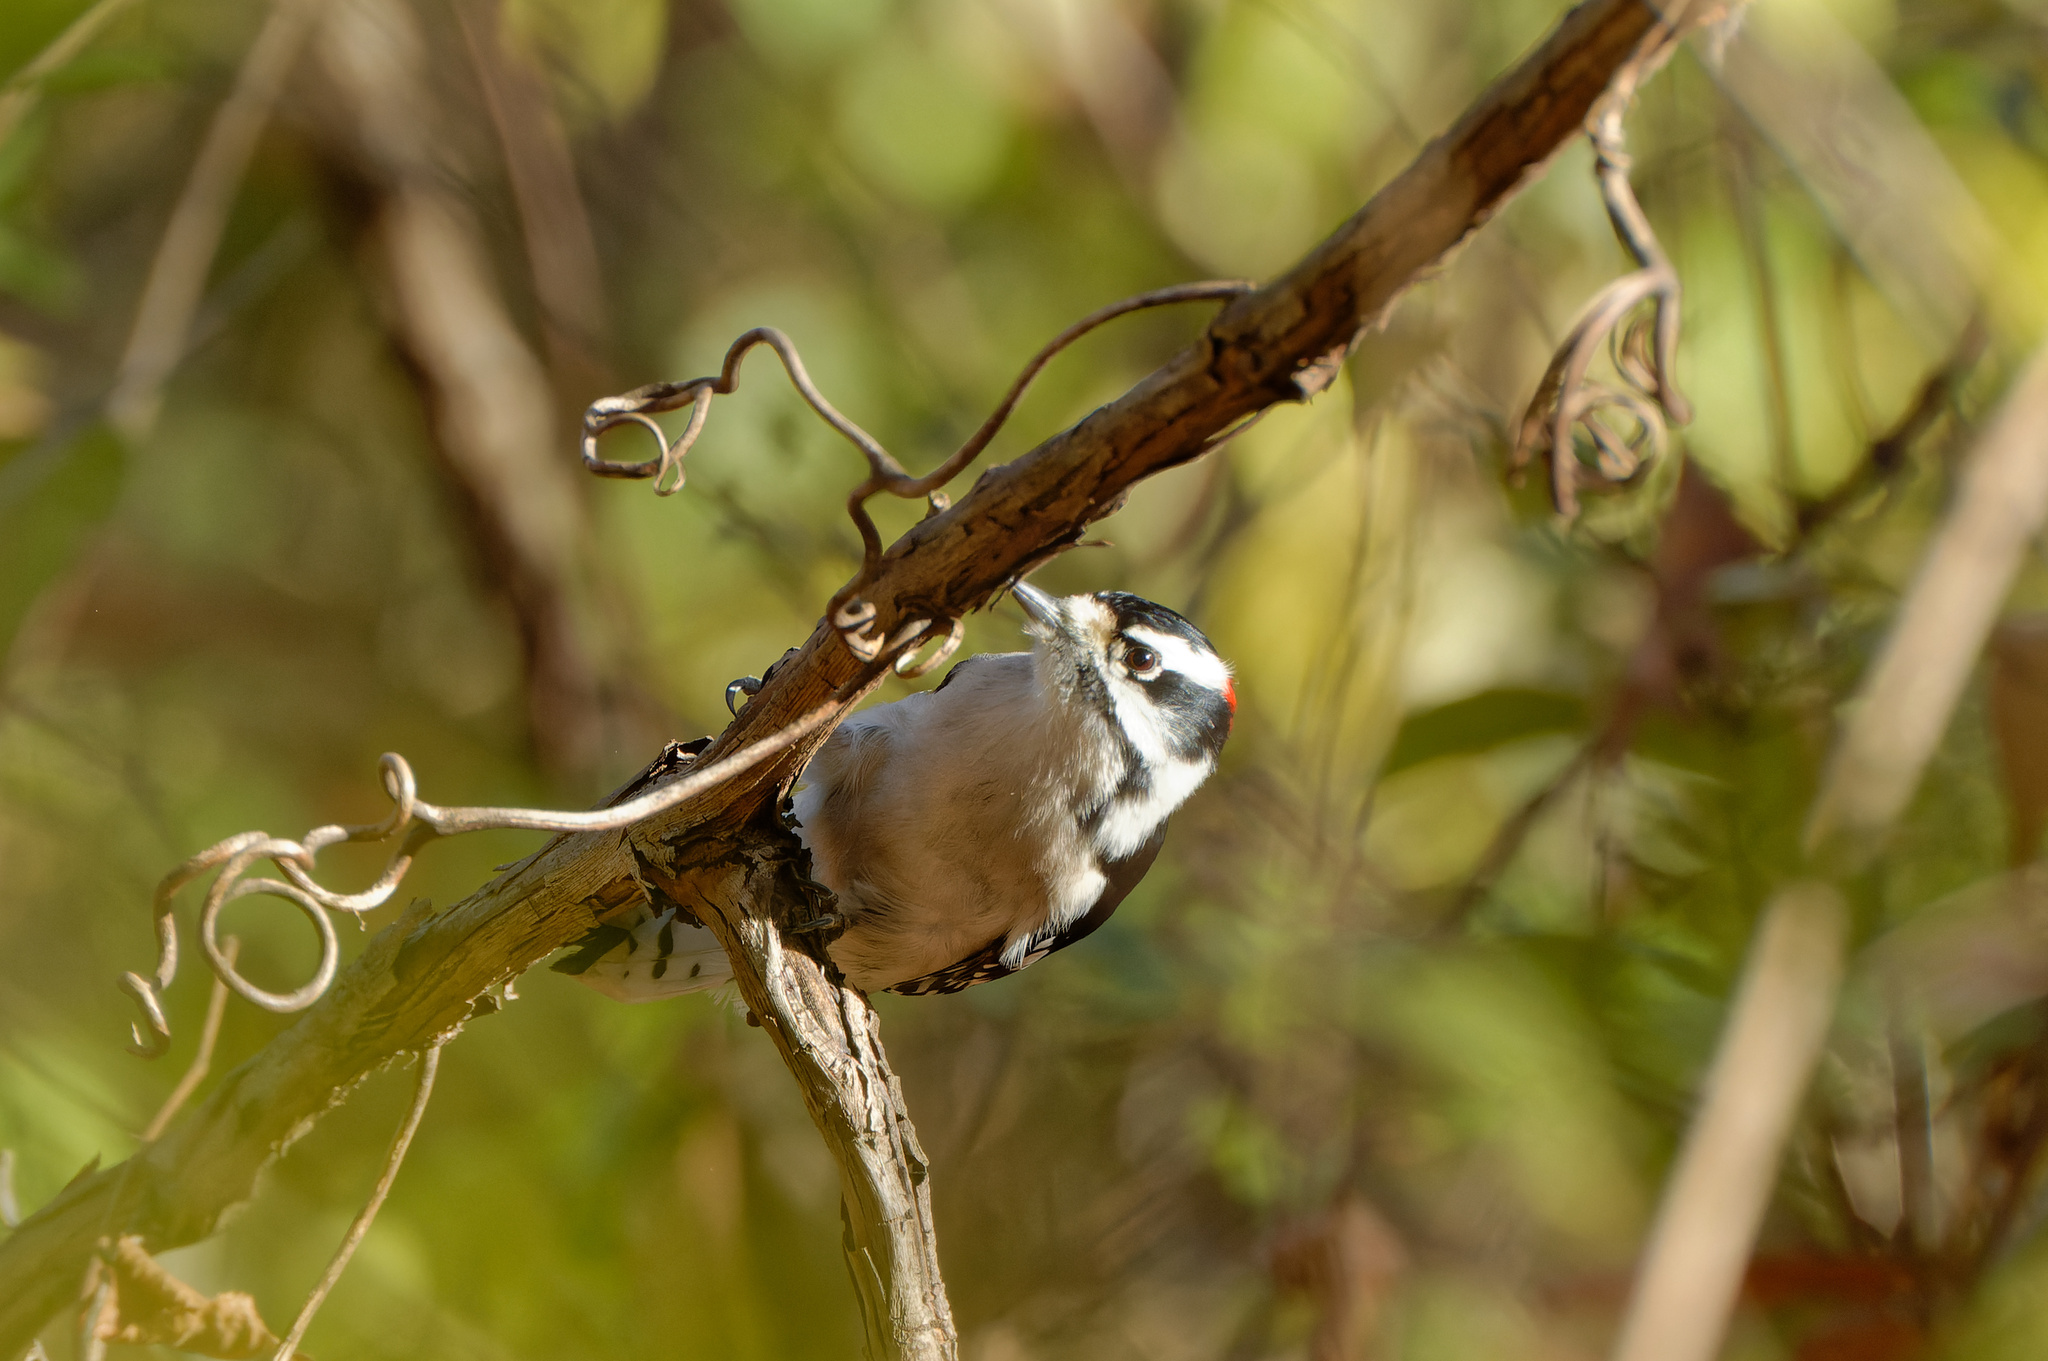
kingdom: Animalia
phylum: Chordata
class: Aves
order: Piciformes
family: Picidae
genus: Dryobates
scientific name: Dryobates pubescens
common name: Downy woodpecker
